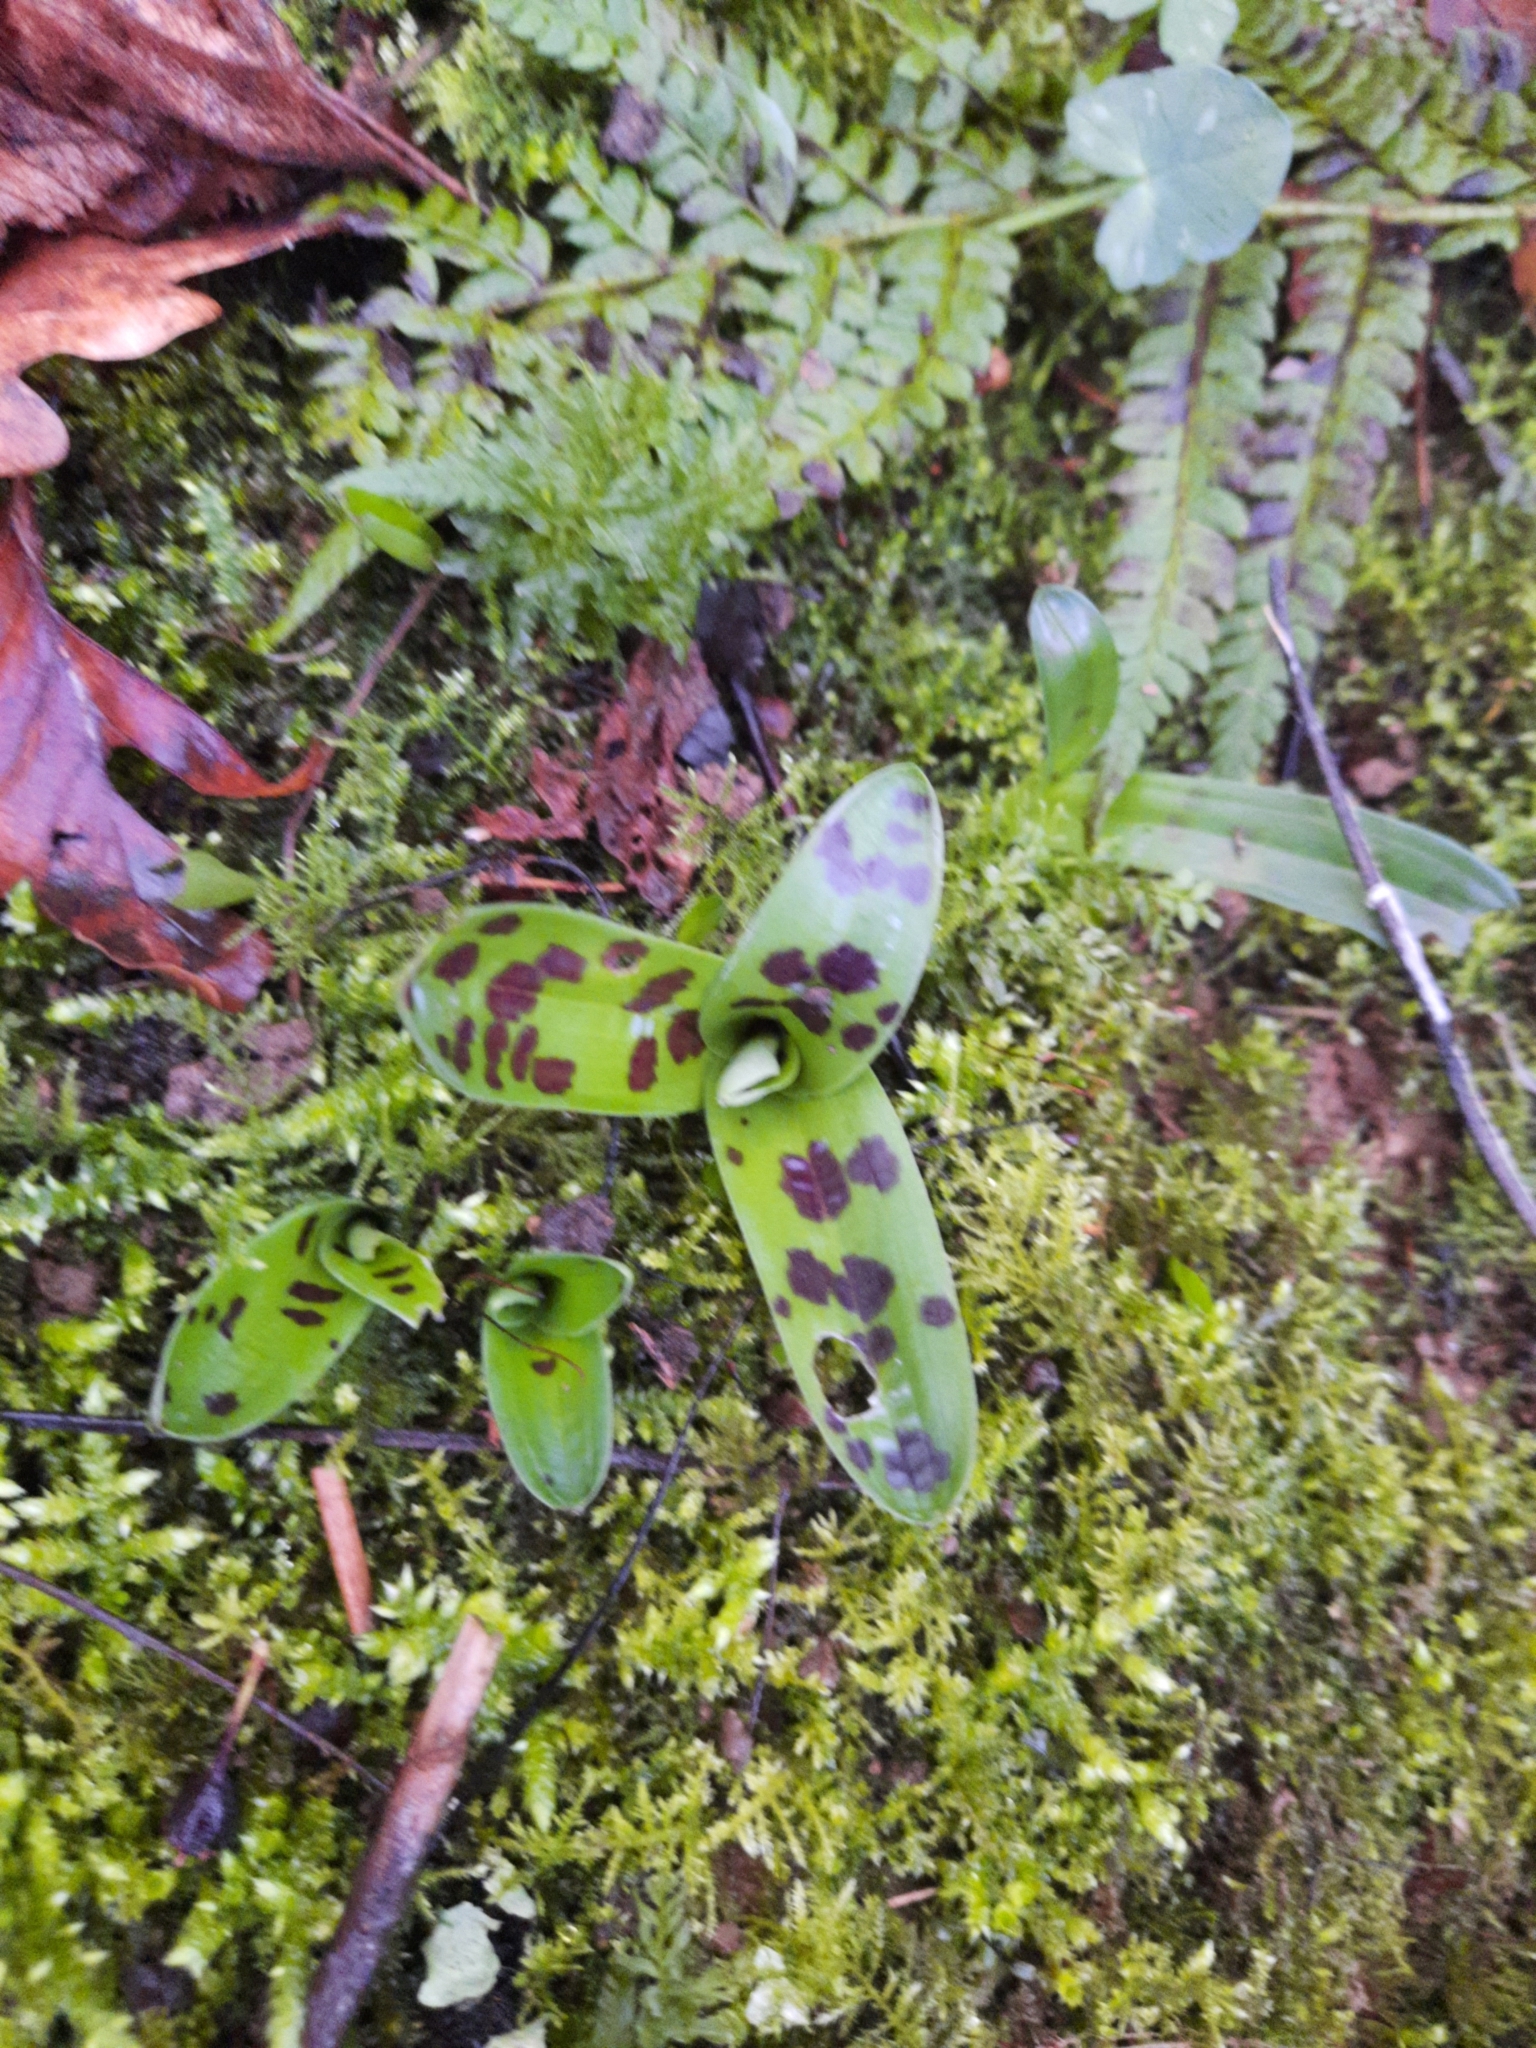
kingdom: Plantae
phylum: Tracheophyta
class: Liliopsida
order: Asparagales
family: Orchidaceae
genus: Orchis
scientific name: Orchis mascula
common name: Early-purple orchid
